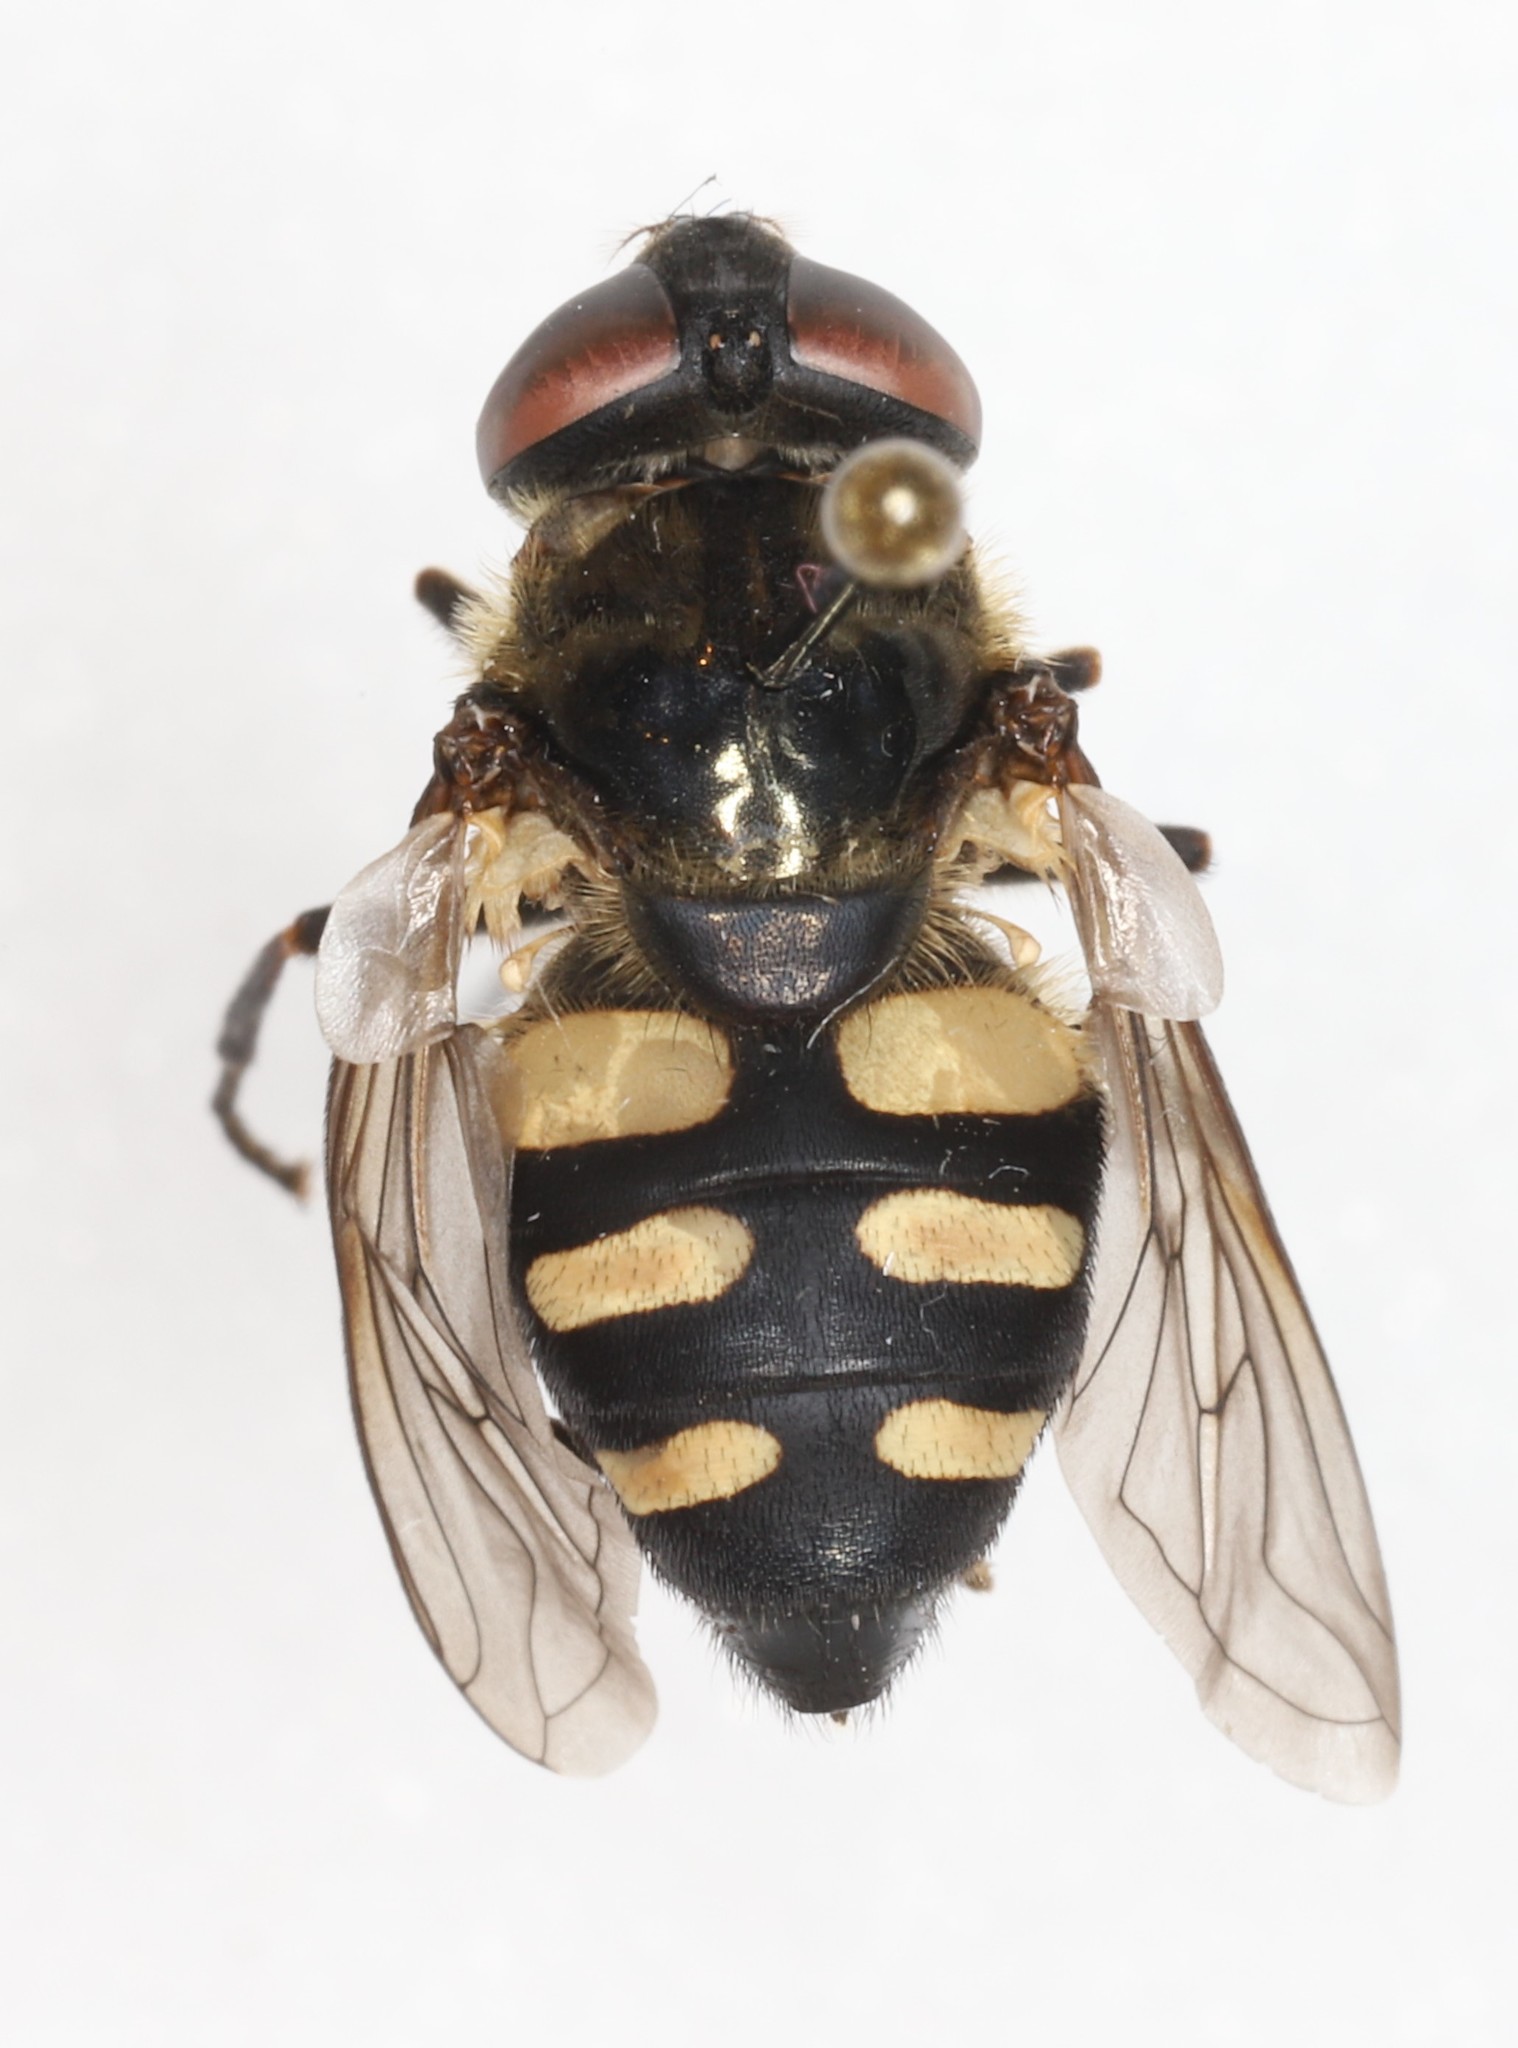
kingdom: Animalia
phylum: Arthropoda
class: Insecta
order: Diptera
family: Syrphidae
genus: Sericomyia
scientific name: Sericomyia transversa
